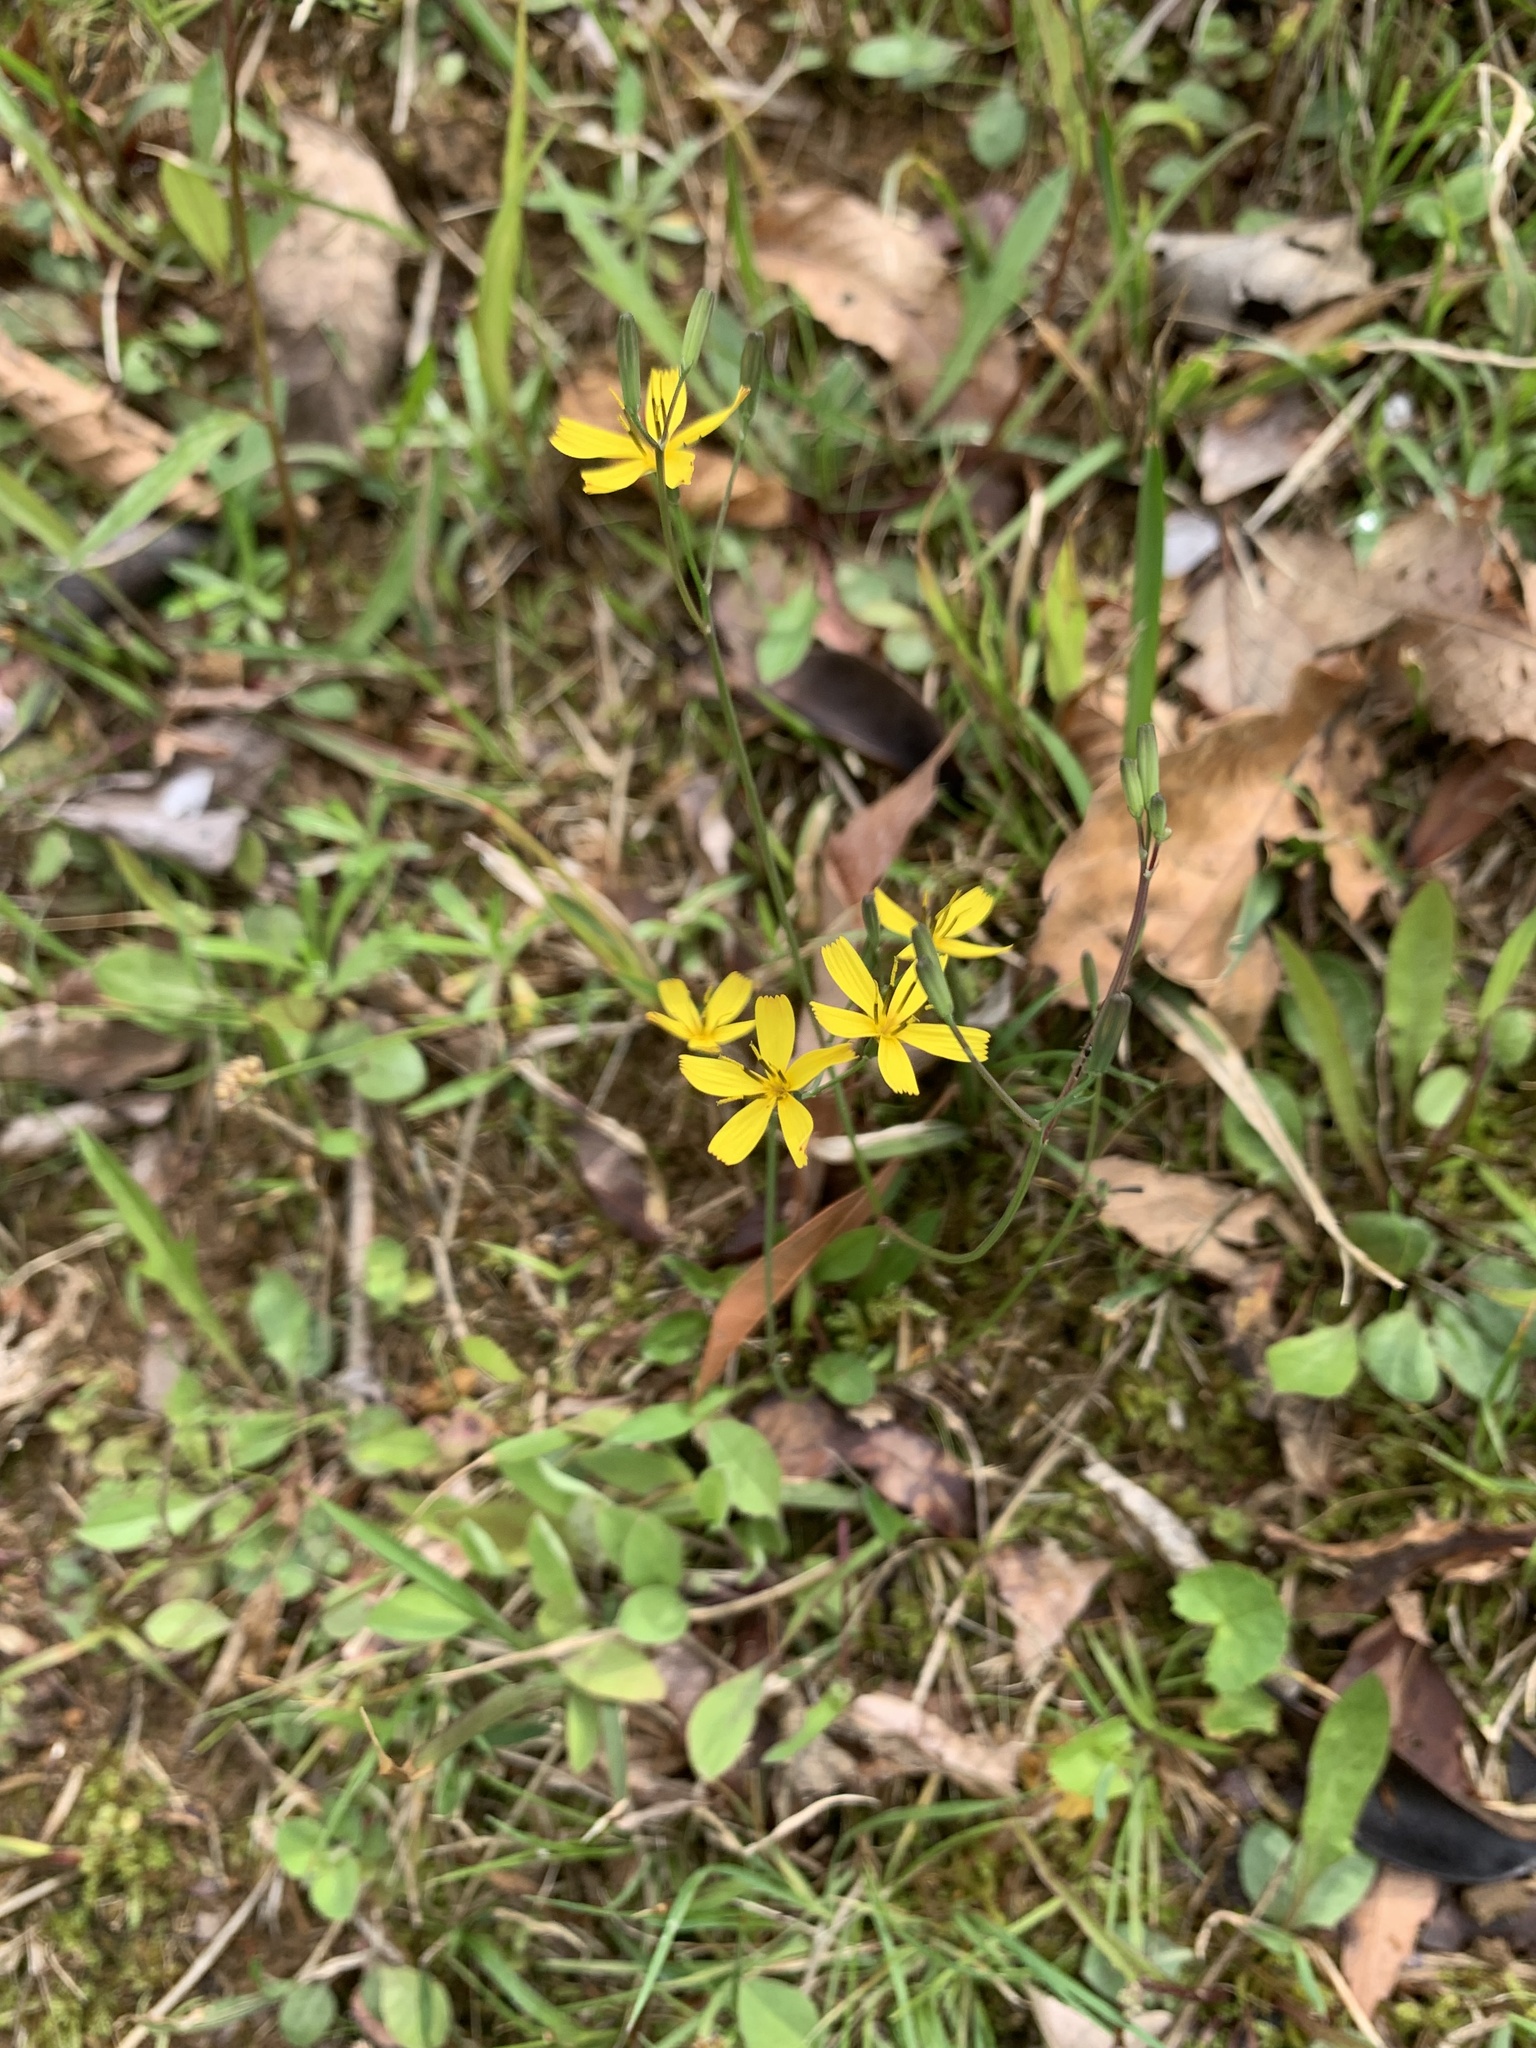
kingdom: Plantae
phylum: Tracheophyta
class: Magnoliopsida
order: Asterales
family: Asteraceae
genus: Ixeridium
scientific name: Ixeridium dentatum
